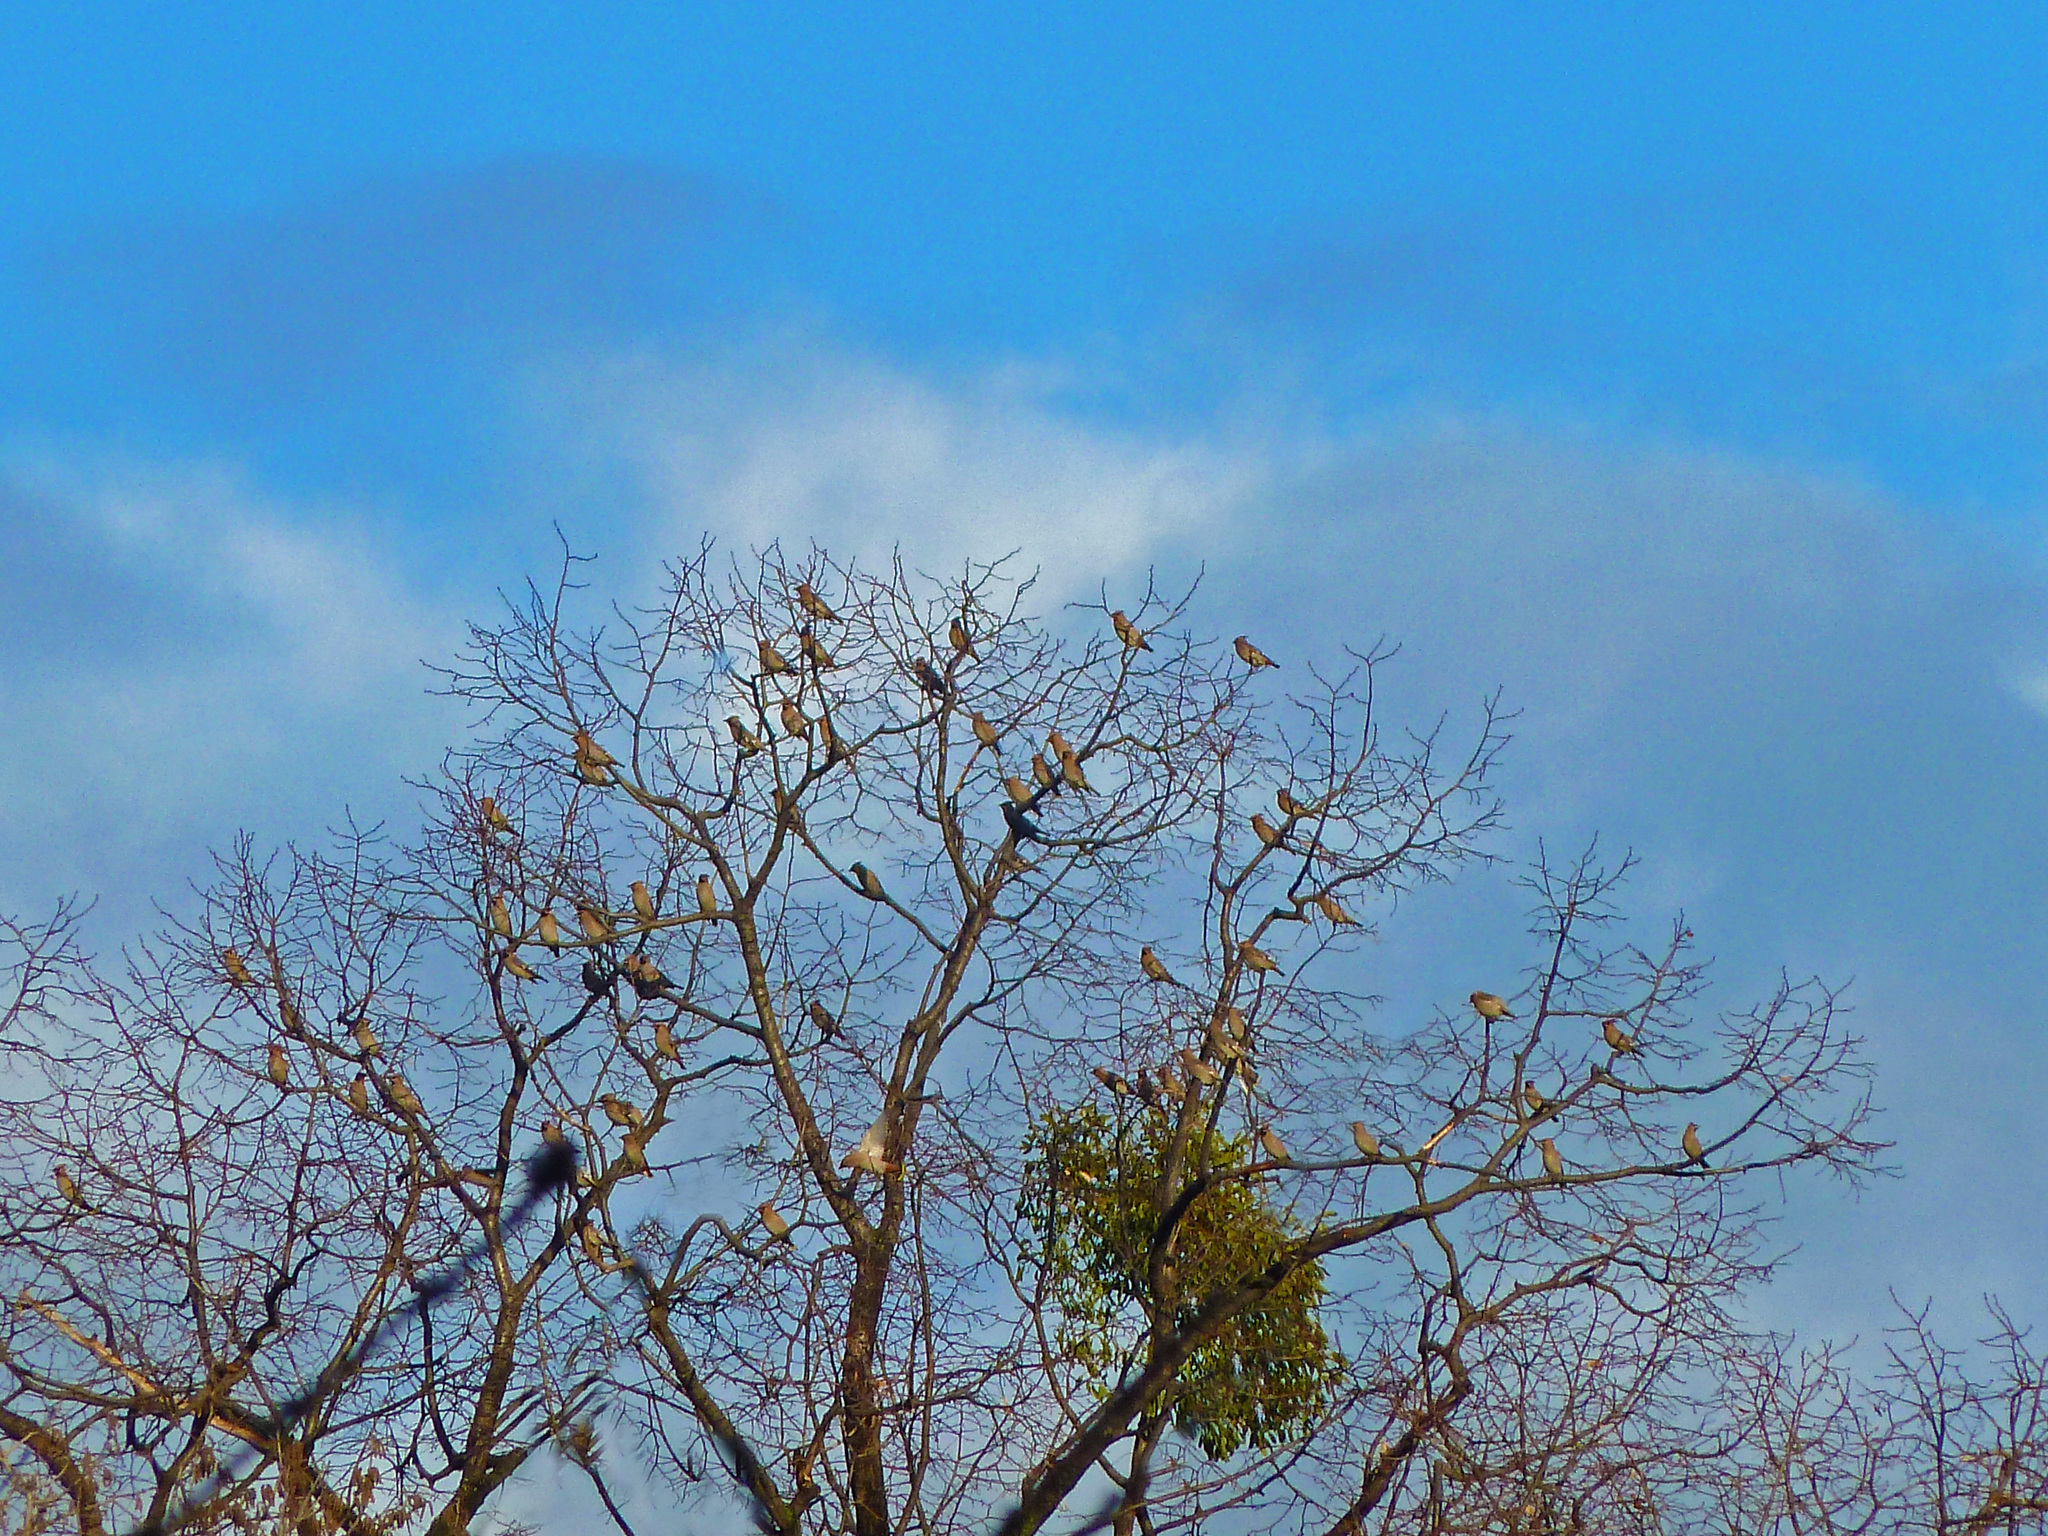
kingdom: Animalia
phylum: Chordata
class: Aves
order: Passeriformes
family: Bombycillidae
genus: Bombycilla
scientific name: Bombycilla garrulus
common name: Bohemian waxwing
